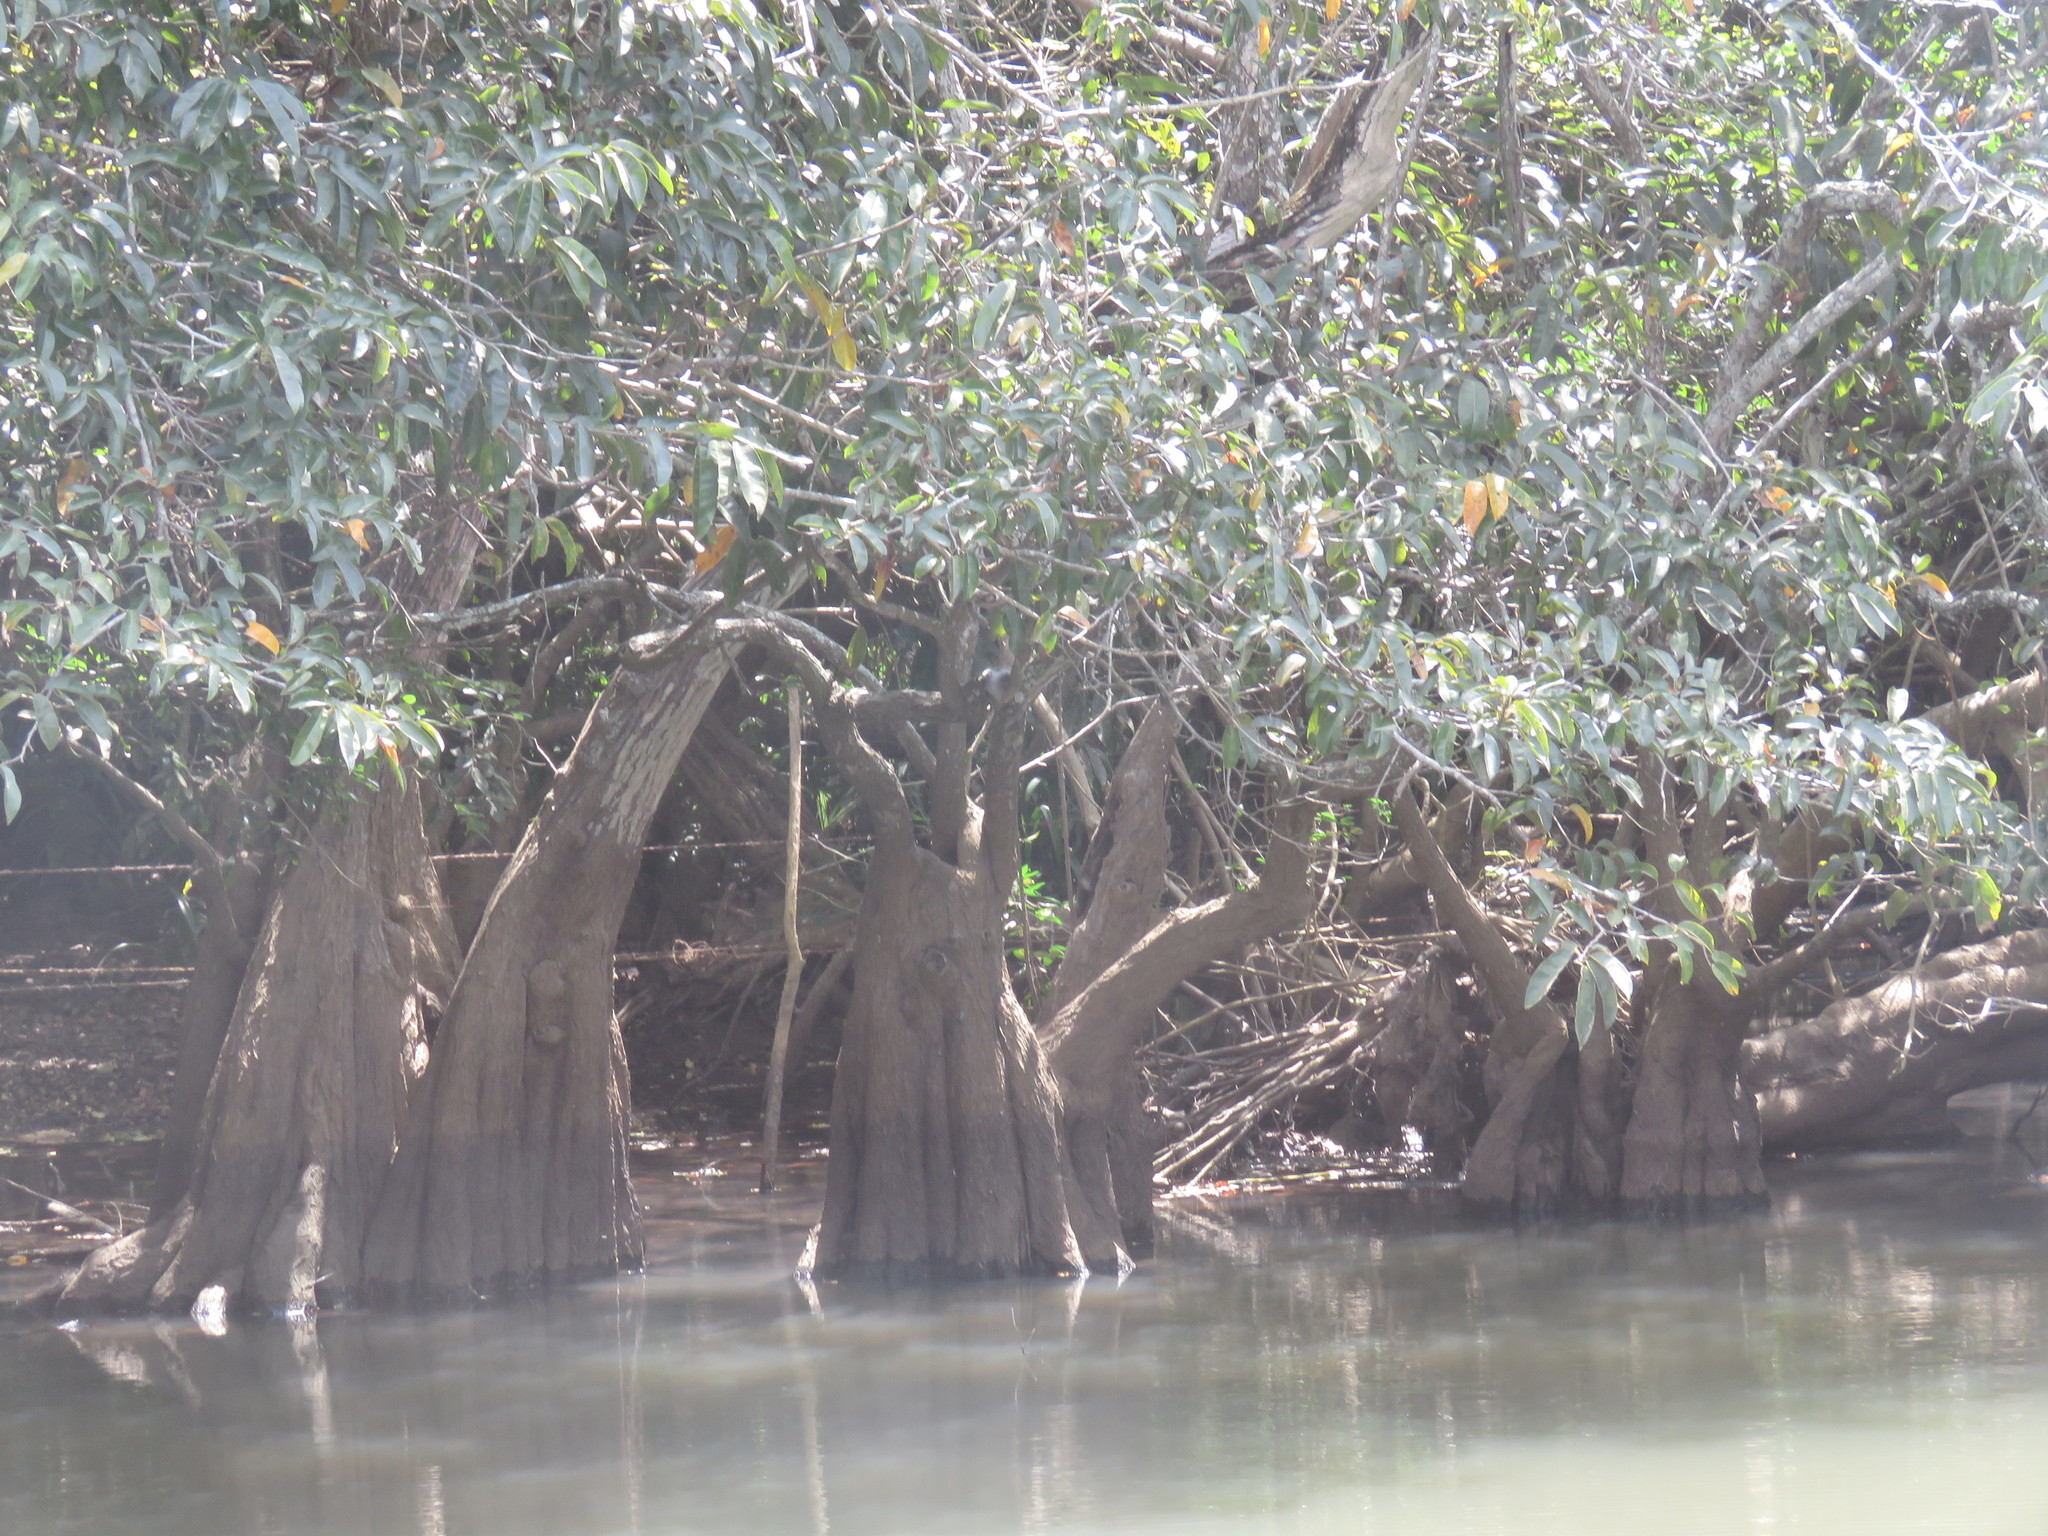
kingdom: Plantae
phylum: Tracheophyta
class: Magnoliopsida
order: Magnoliales
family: Annonaceae
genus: Annona
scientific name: Annona glabra
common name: Monkey apple
